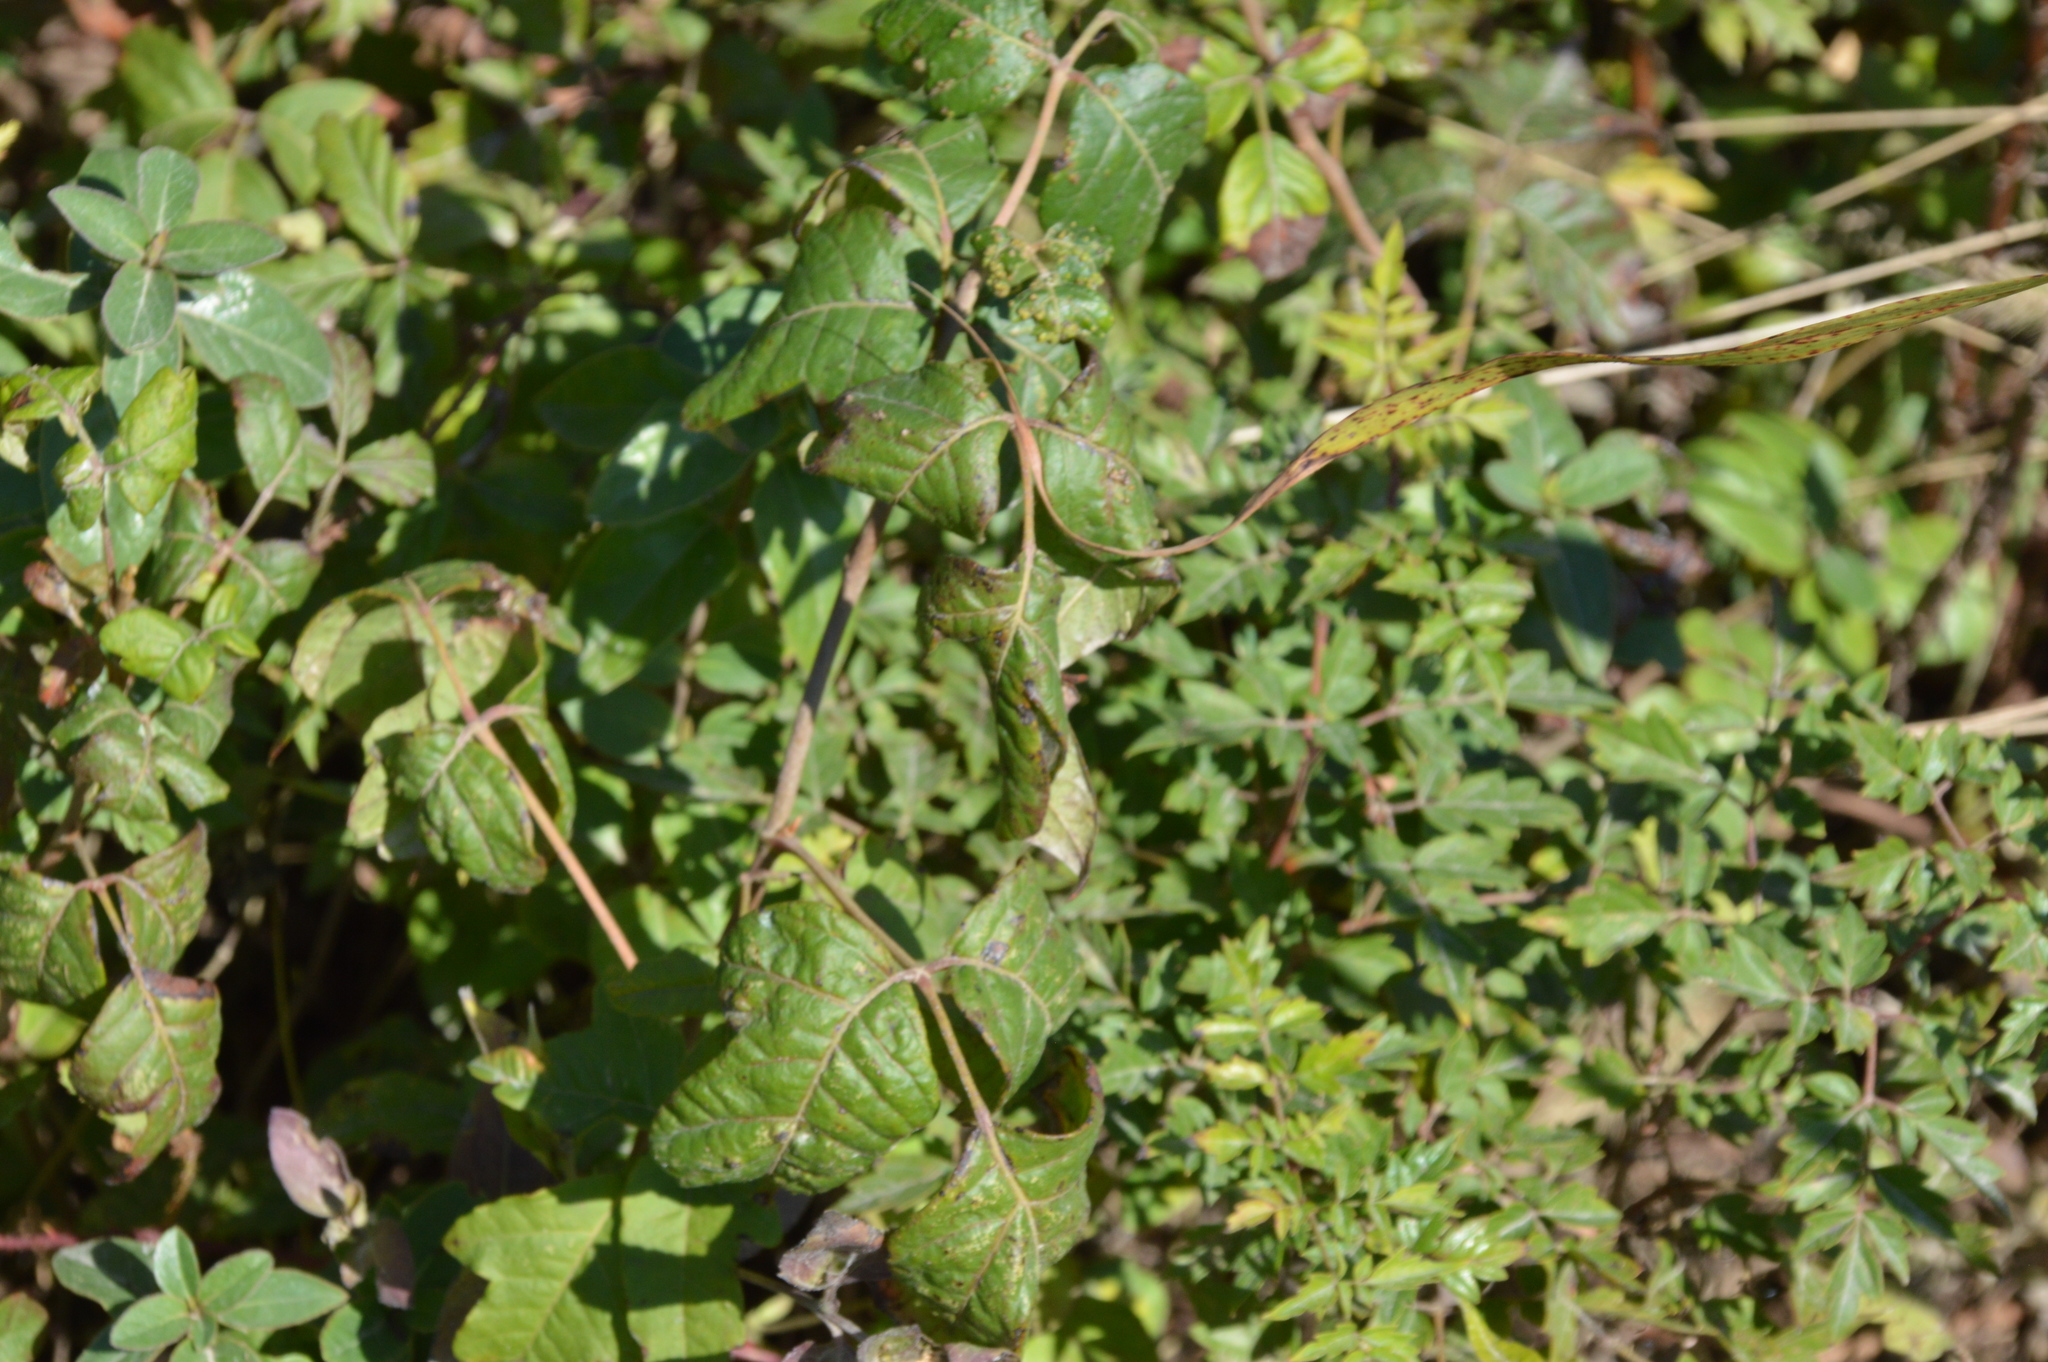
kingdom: Animalia
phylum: Arthropoda
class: Arachnida
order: Trombidiformes
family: Eriophyidae
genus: Aculops
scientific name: Aculops
